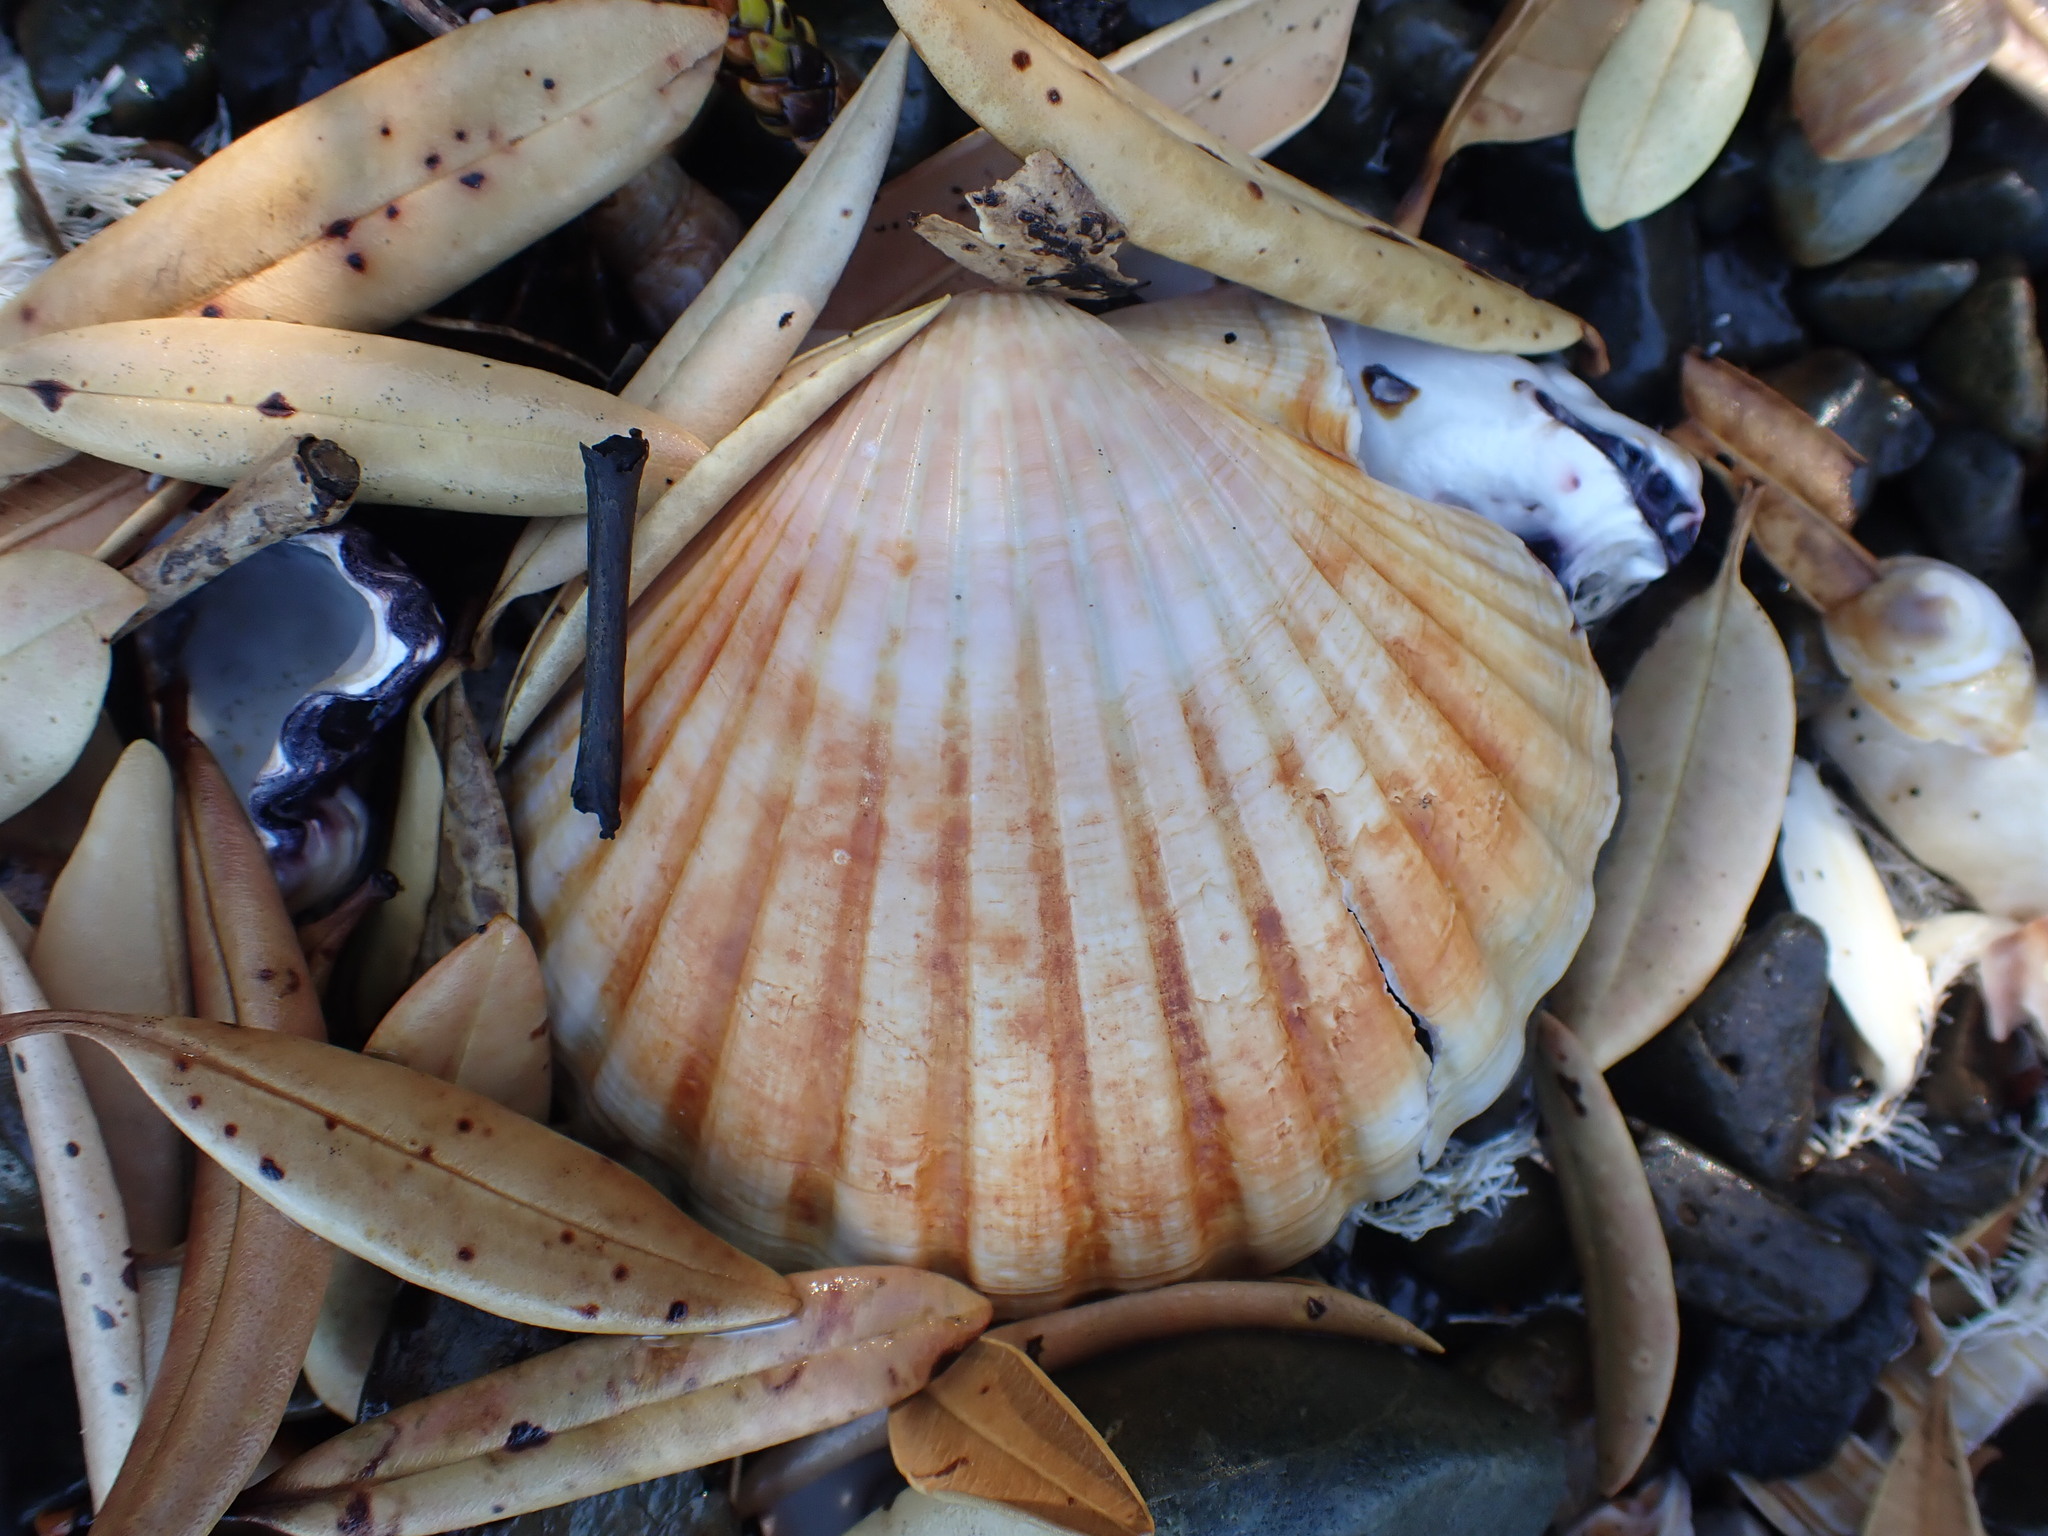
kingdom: Animalia
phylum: Mollusca
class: Bivalvia
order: Pectinida
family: Pectinidae
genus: Pecten
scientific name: Pecten novaezelandiae
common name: New zealand scallop
